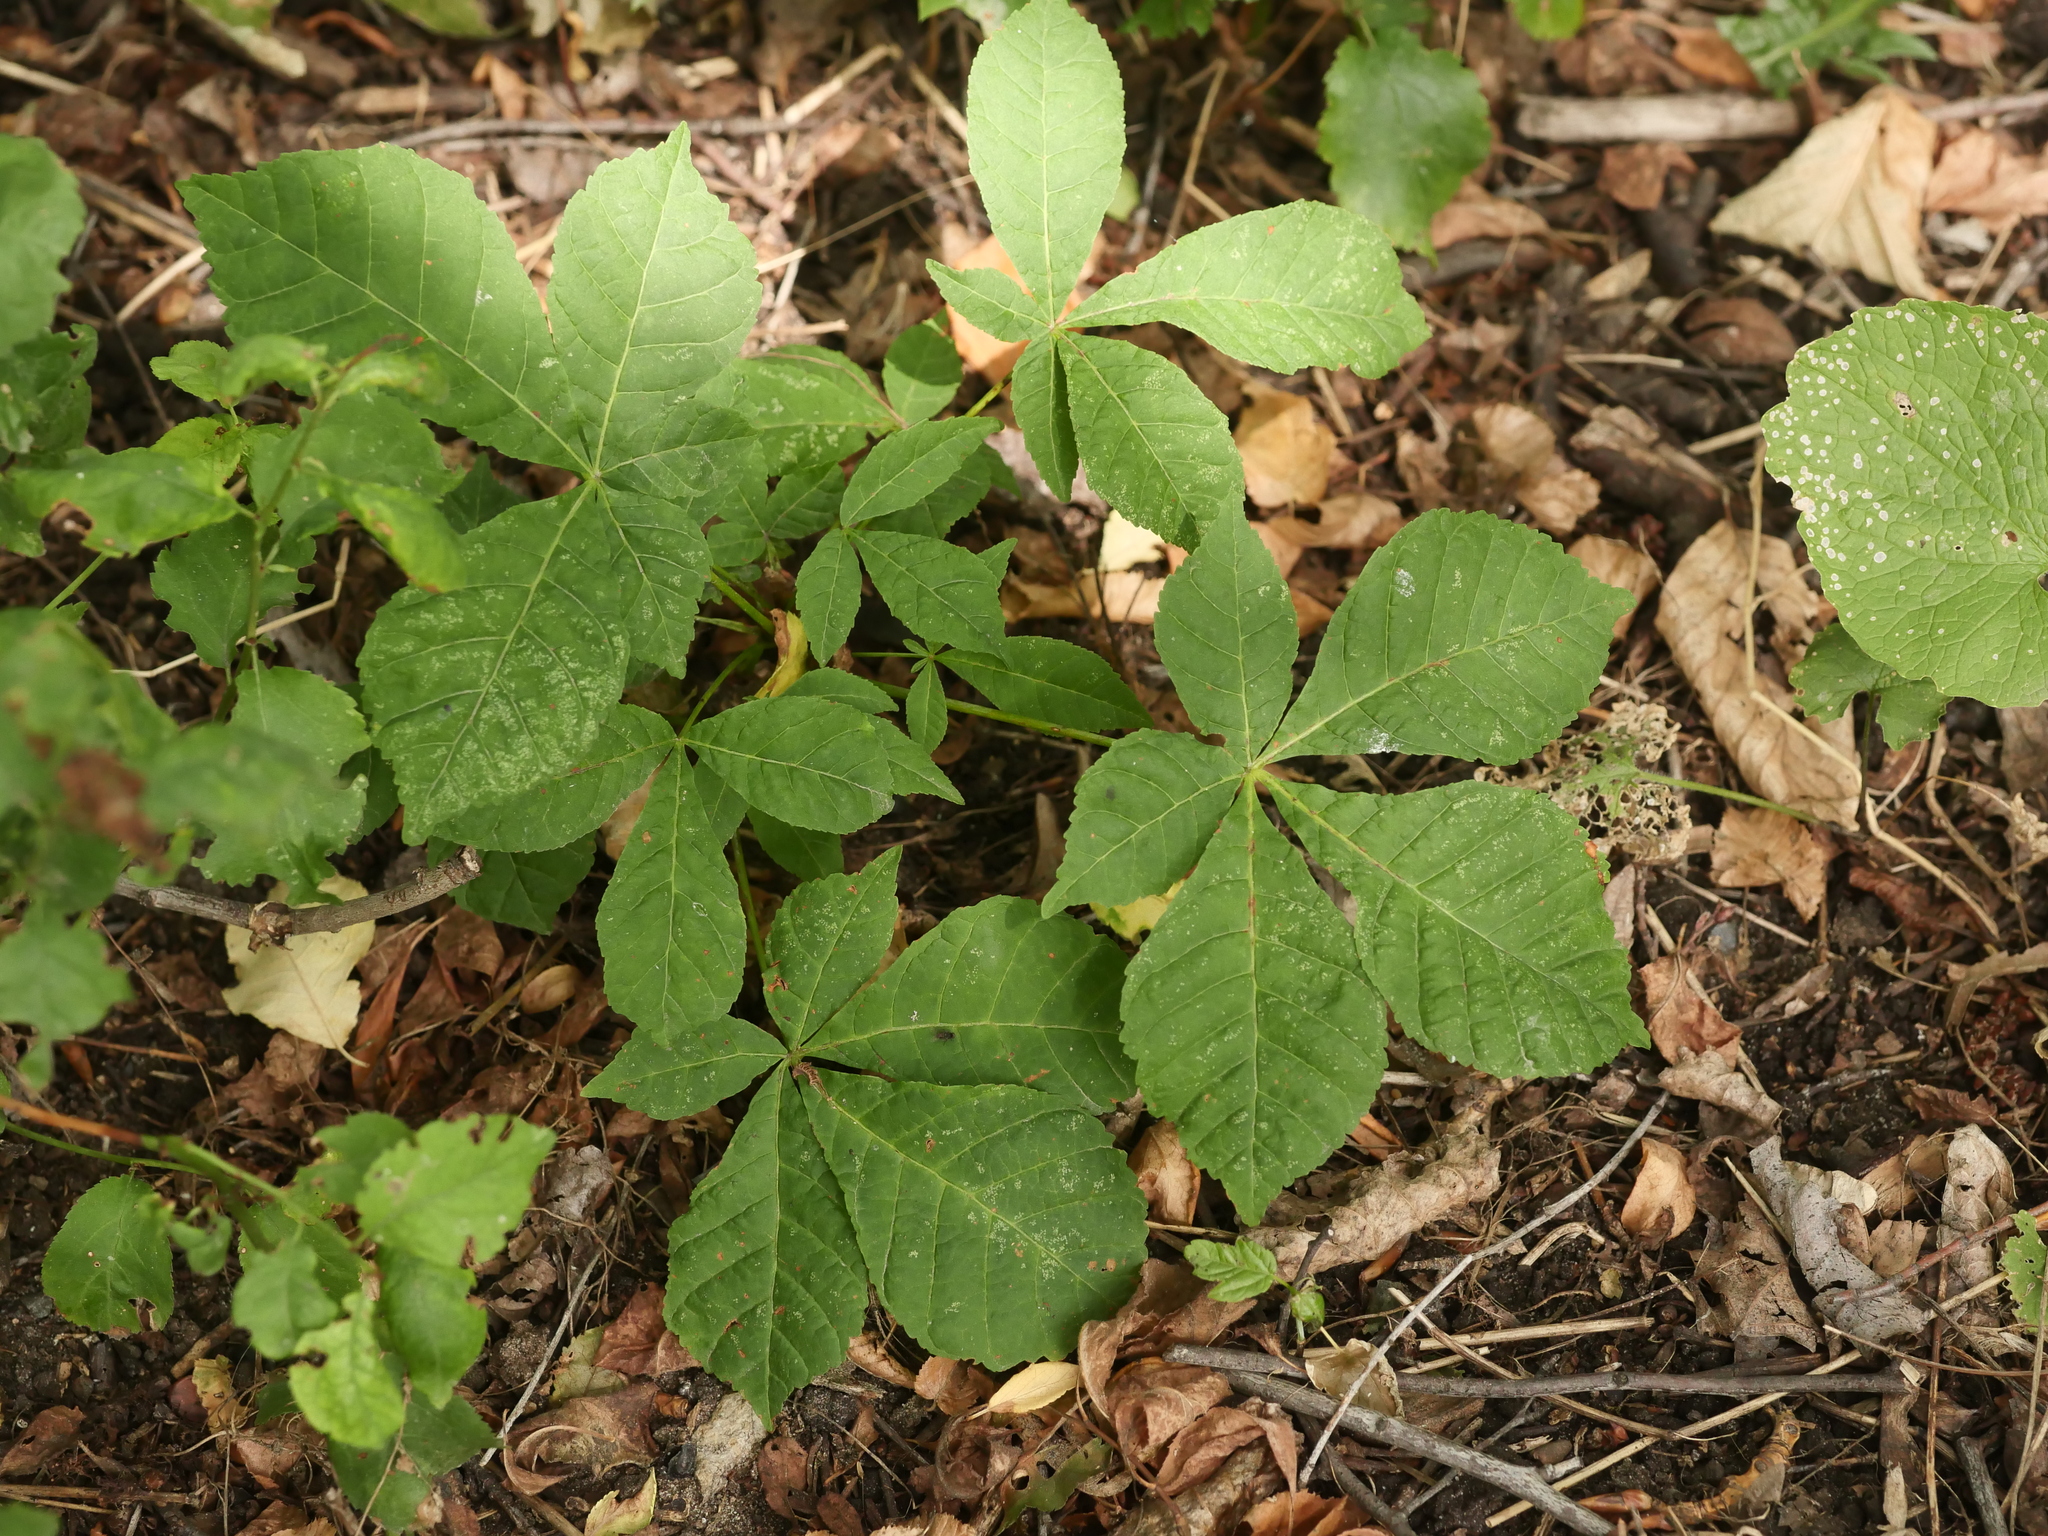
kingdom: Plantae
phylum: Tracheophyta
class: Magnoliopsida
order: Sapindales
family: Sapindaceae
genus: Aesculus
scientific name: Aesculus hippocastanum
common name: Horse-chestnut
